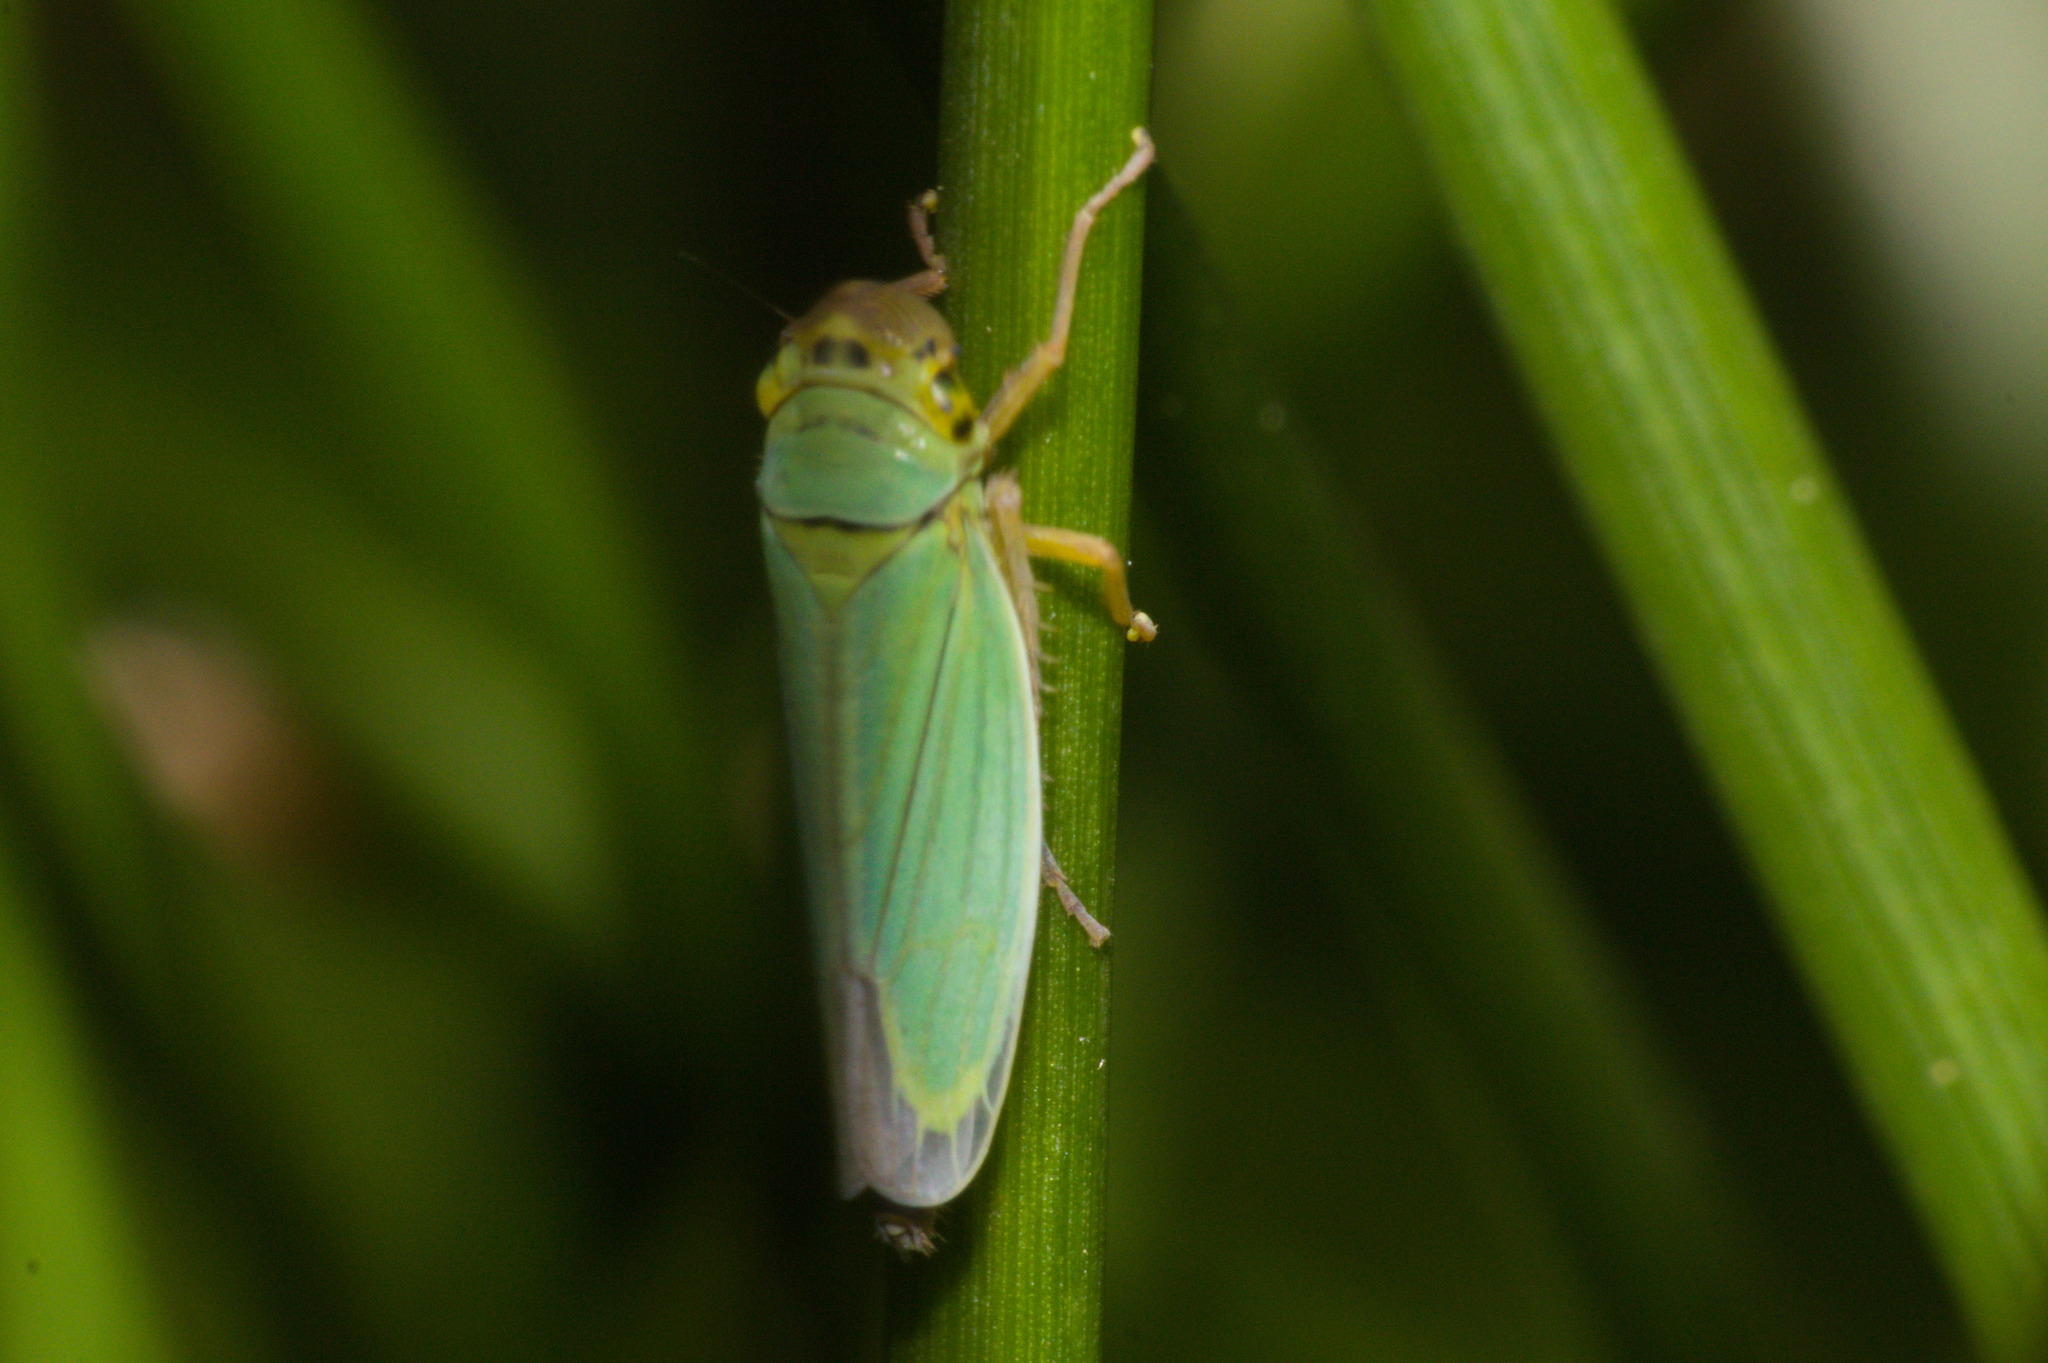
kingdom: Animalia
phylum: Arthropoda
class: Insecta
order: Hemiptera
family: Cicadellidae
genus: Cicadella
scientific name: Cicadella viridis
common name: Leafhopper
